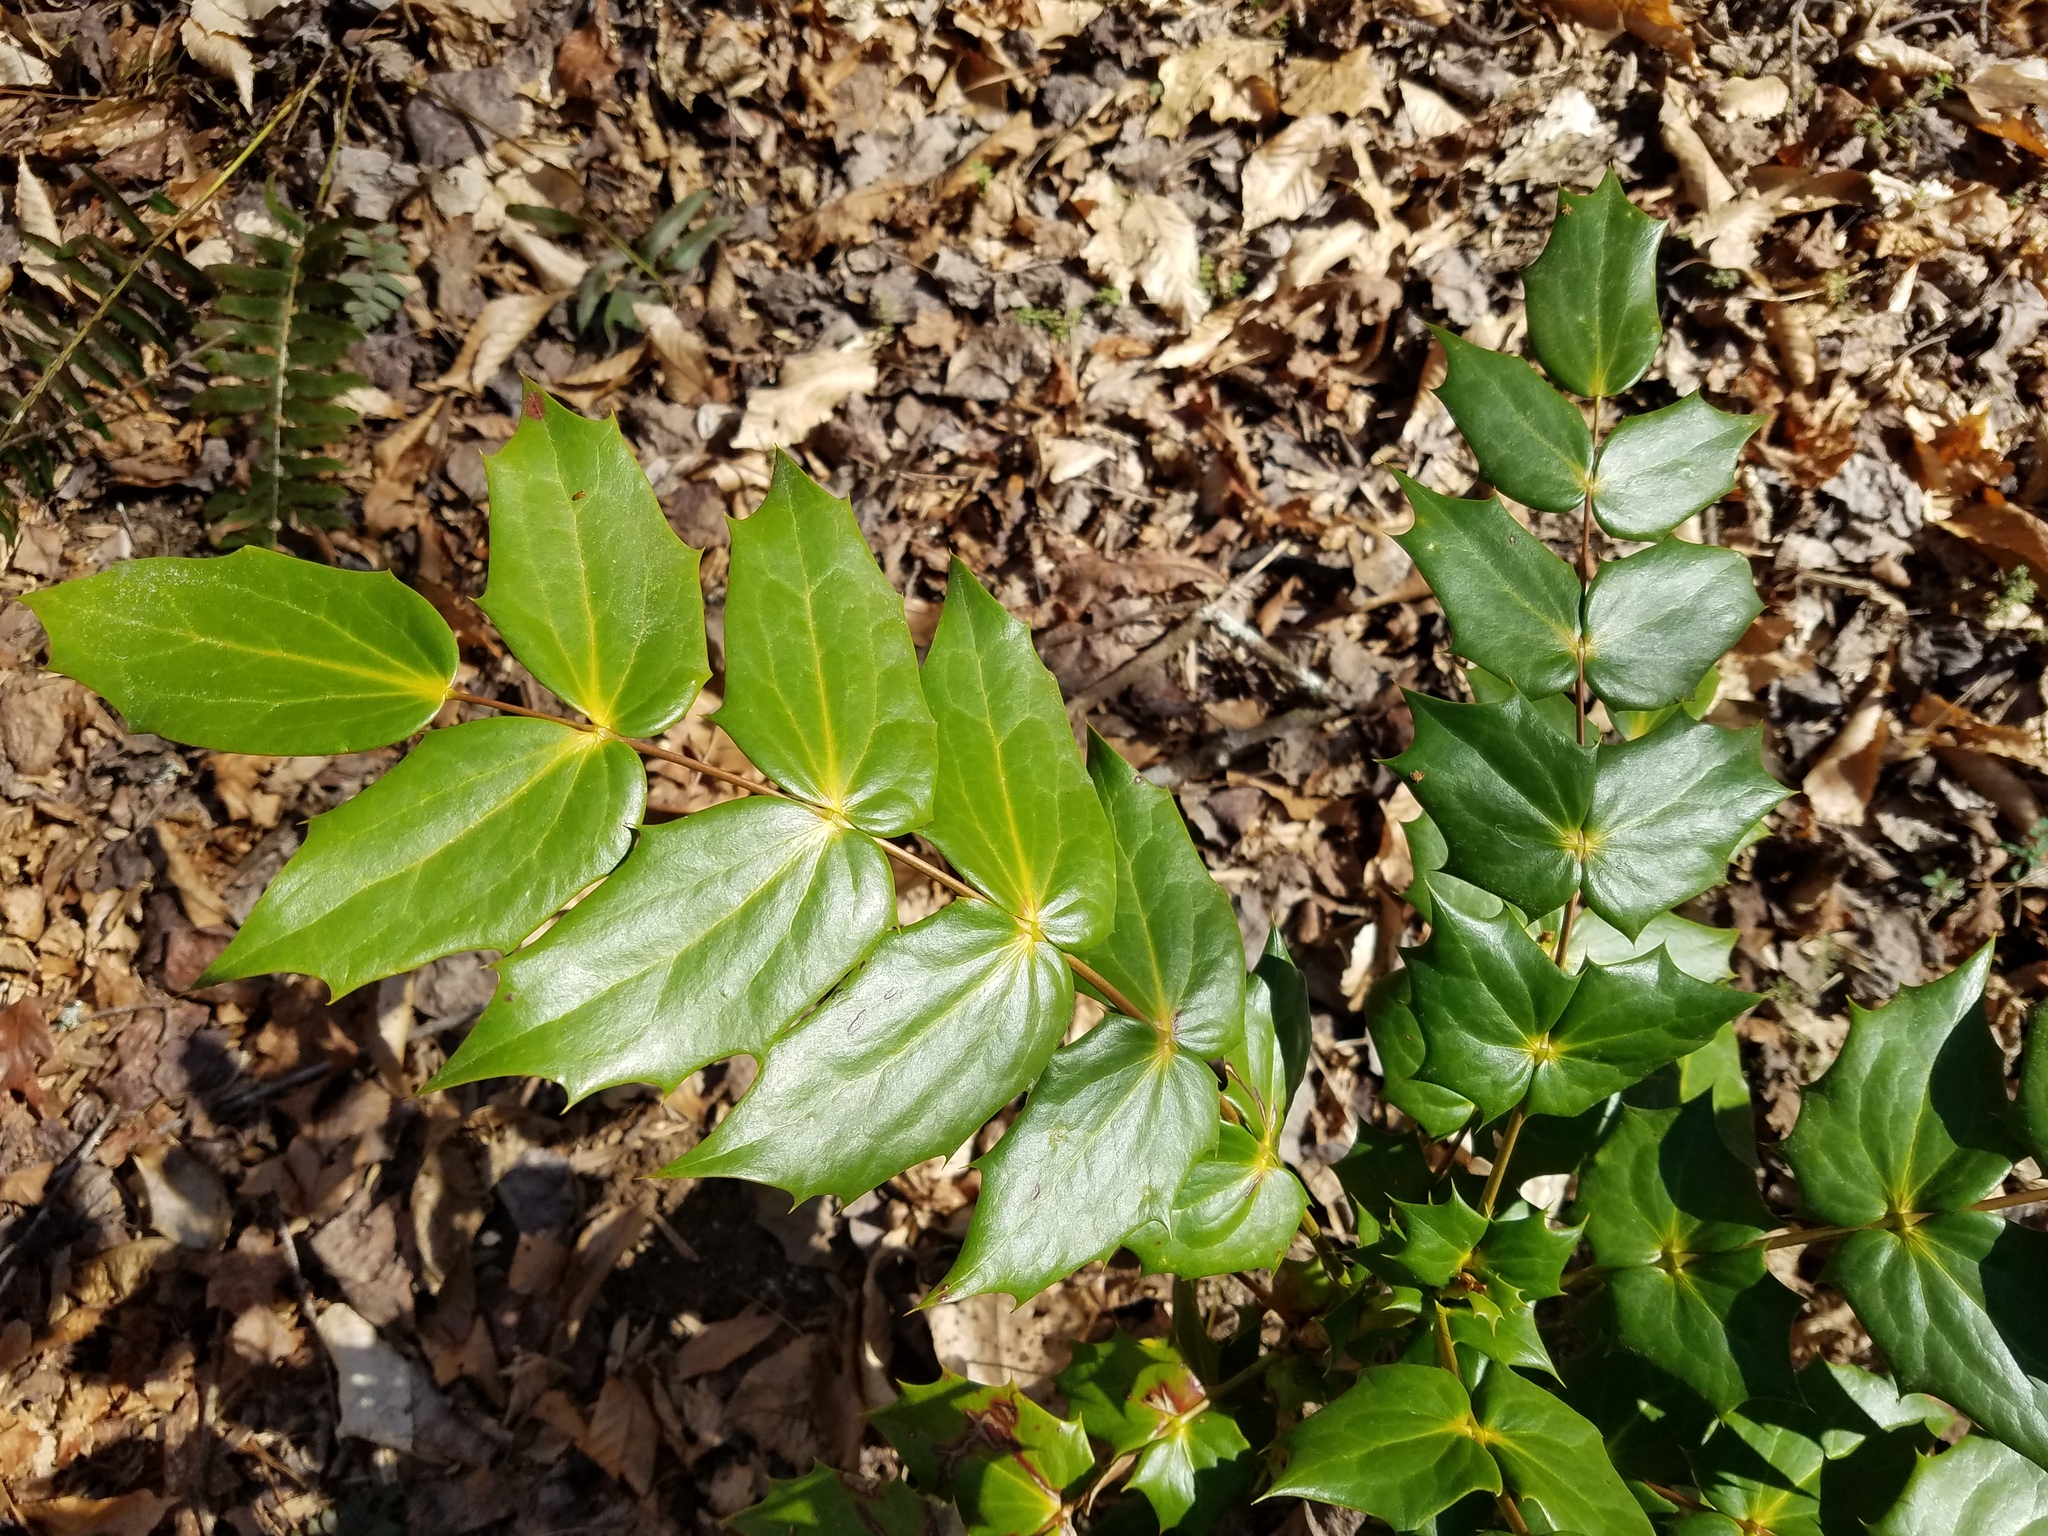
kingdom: Plantae
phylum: Tracheophyta
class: Magnoliopsida
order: Ranunculales
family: Berberidaceae
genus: Mahonia
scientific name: Mahonia bealei
